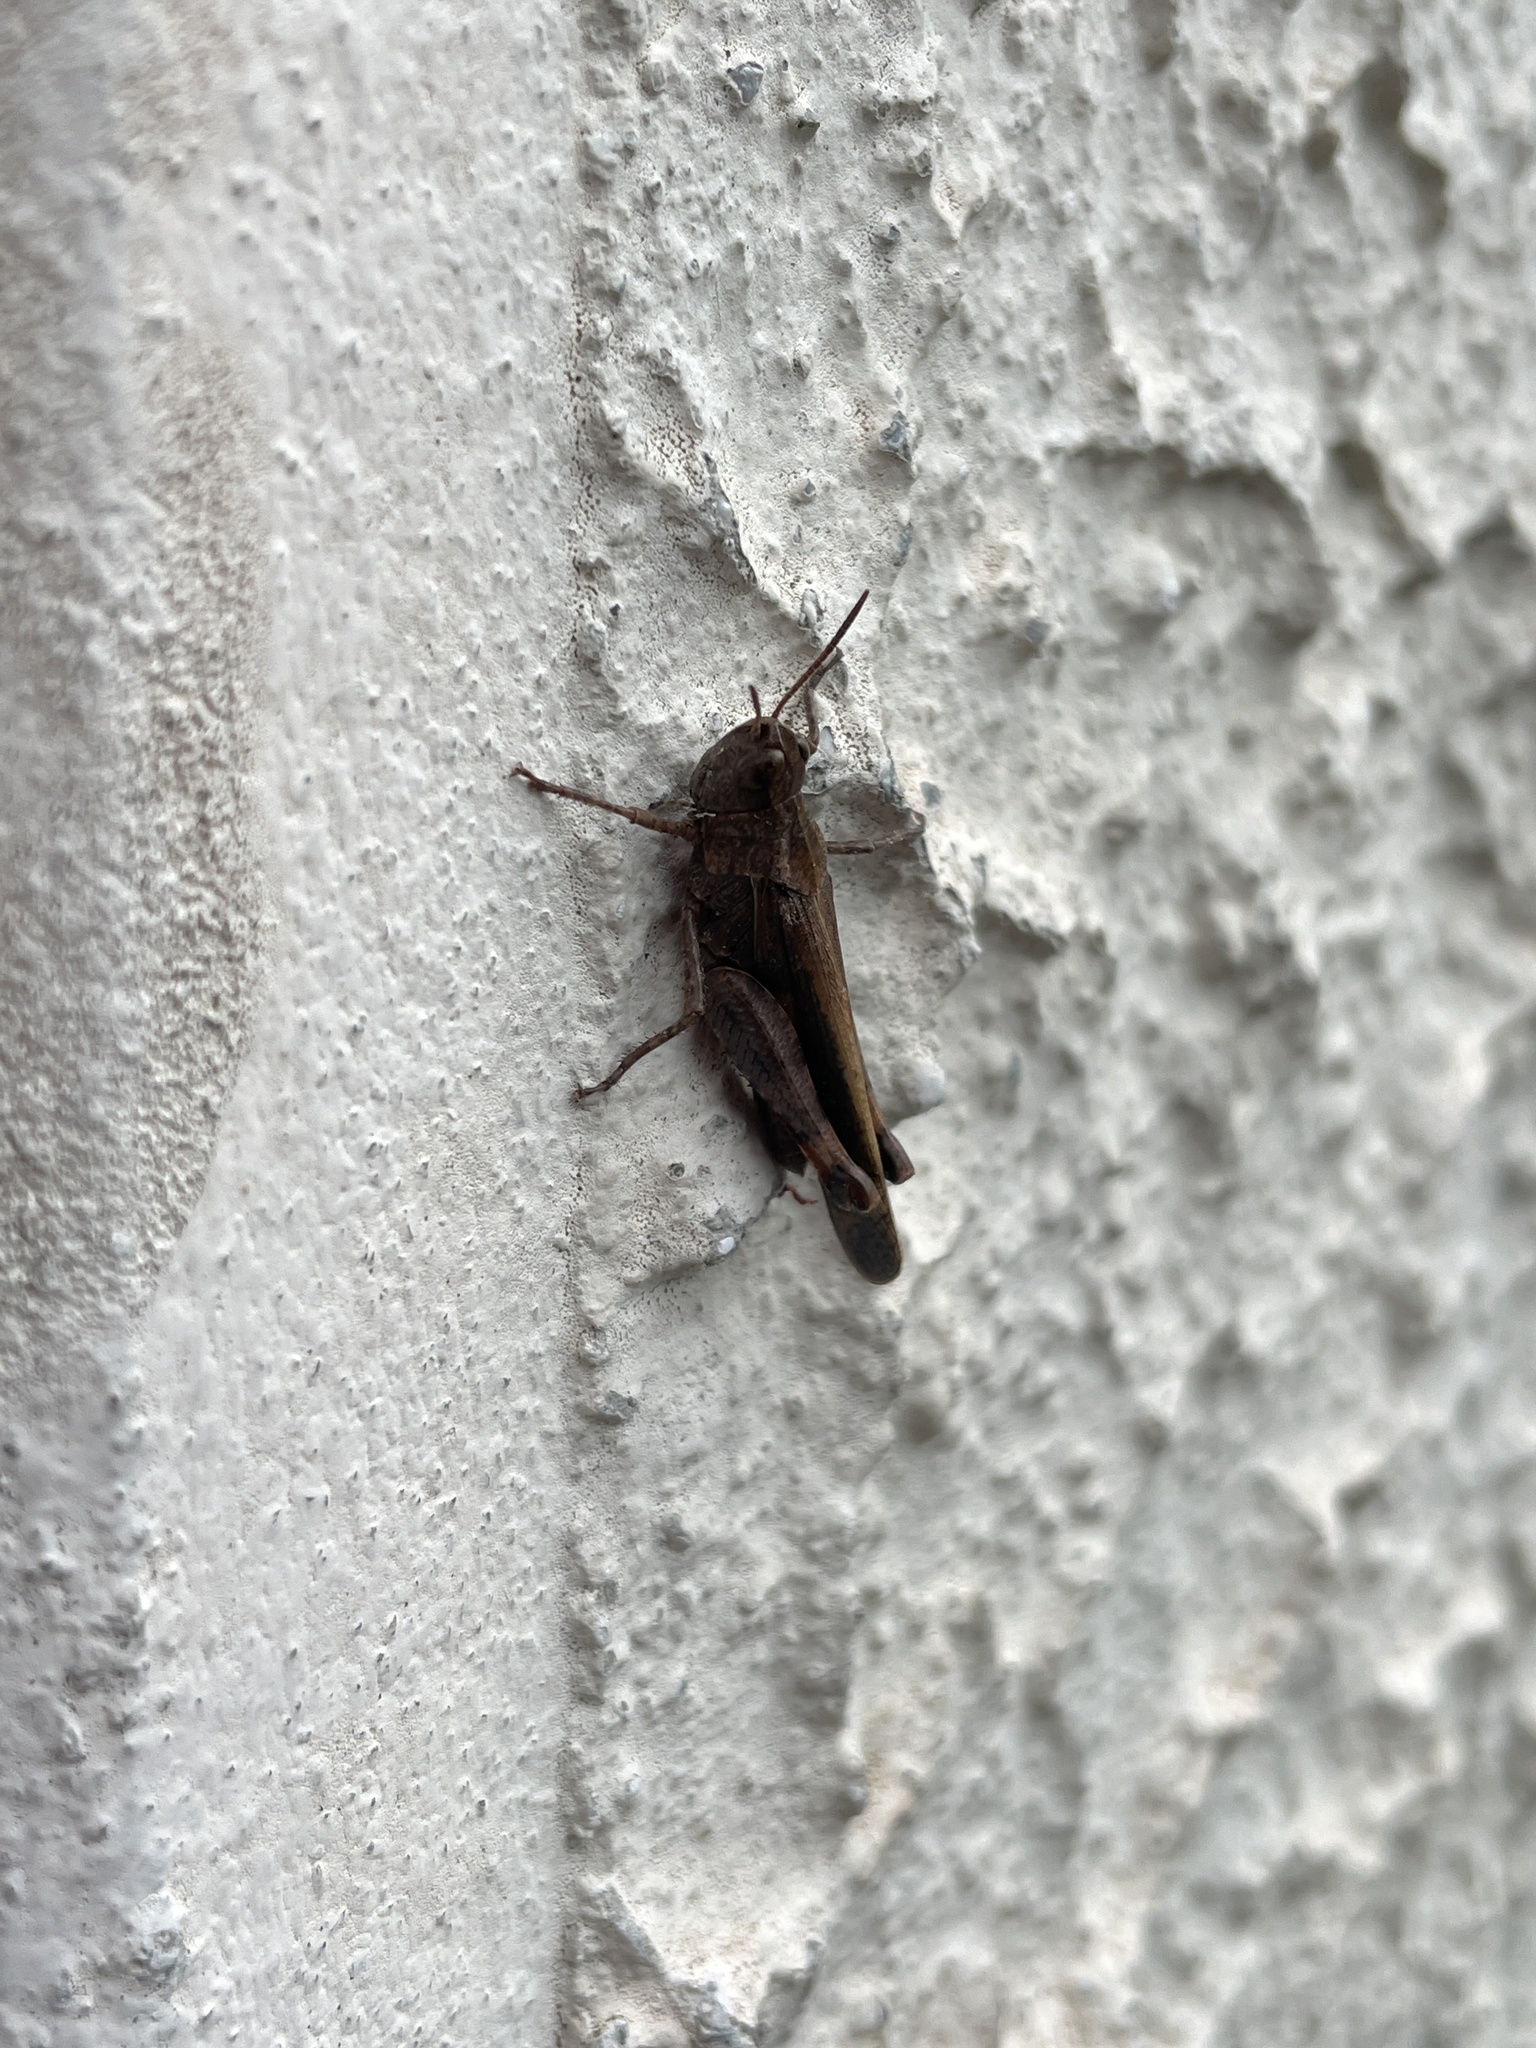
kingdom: Animalia
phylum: Arthropoda
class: Insecta
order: Orthoptera
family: Acrididae
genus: Aiolopus
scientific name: Aiolopus strepens
